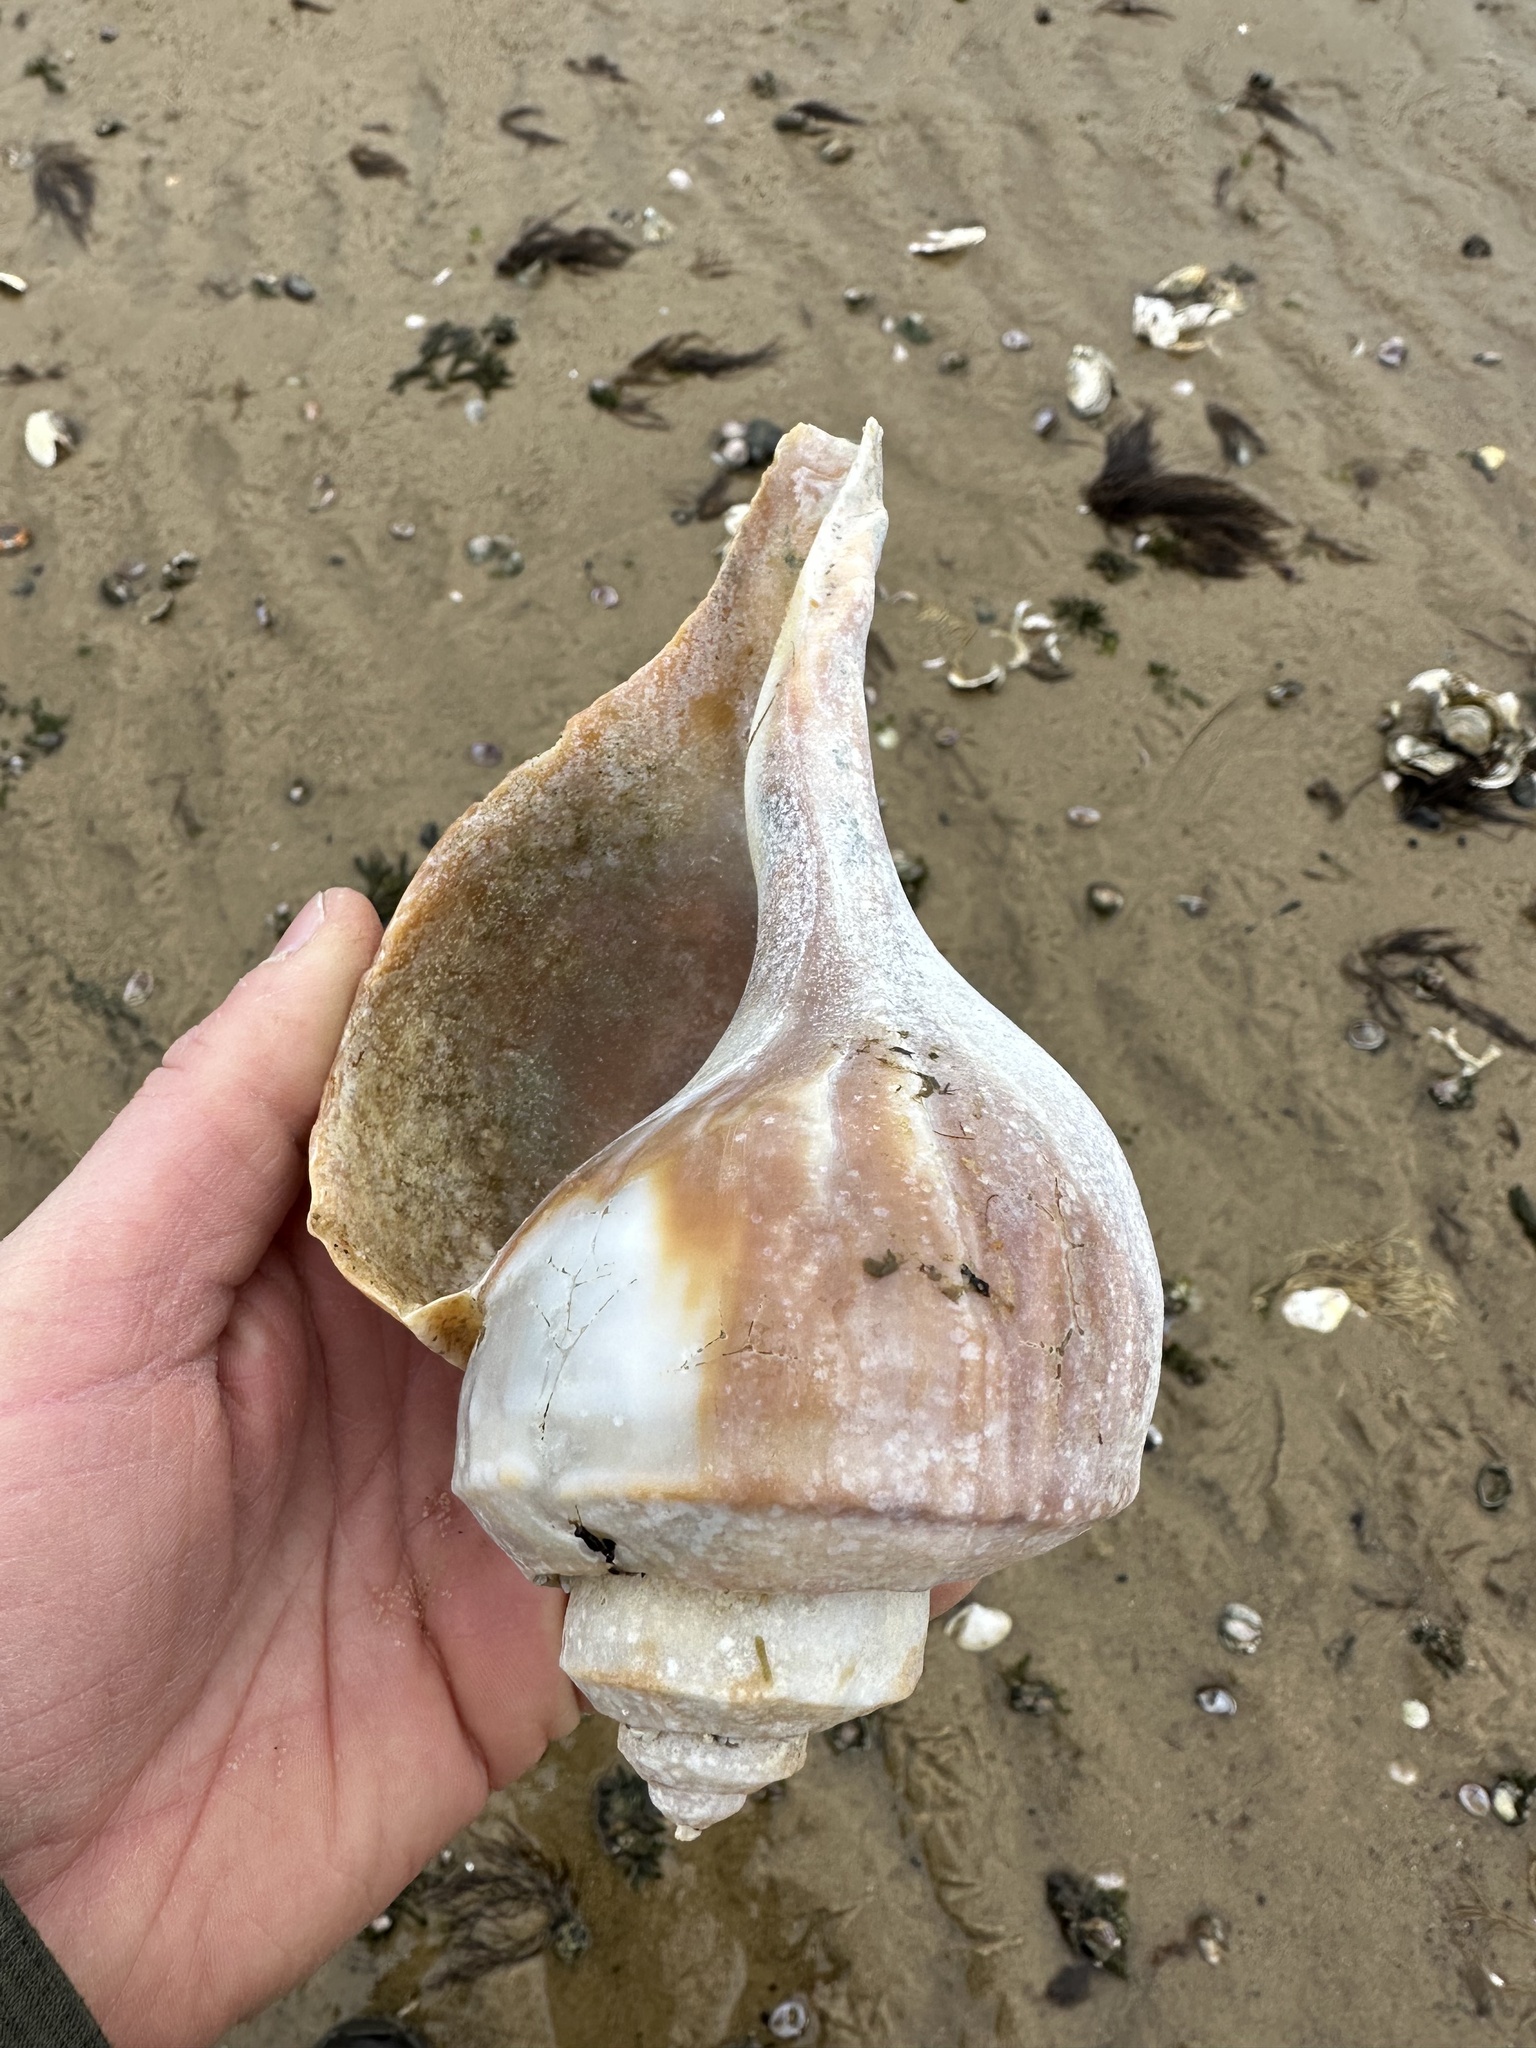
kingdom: Animalia
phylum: Mollusca
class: Gastropoda
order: Neogastropoda
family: Busyconidae
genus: Busycotypus
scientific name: Busycotypus canaliculatus
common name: Channeled whelk
